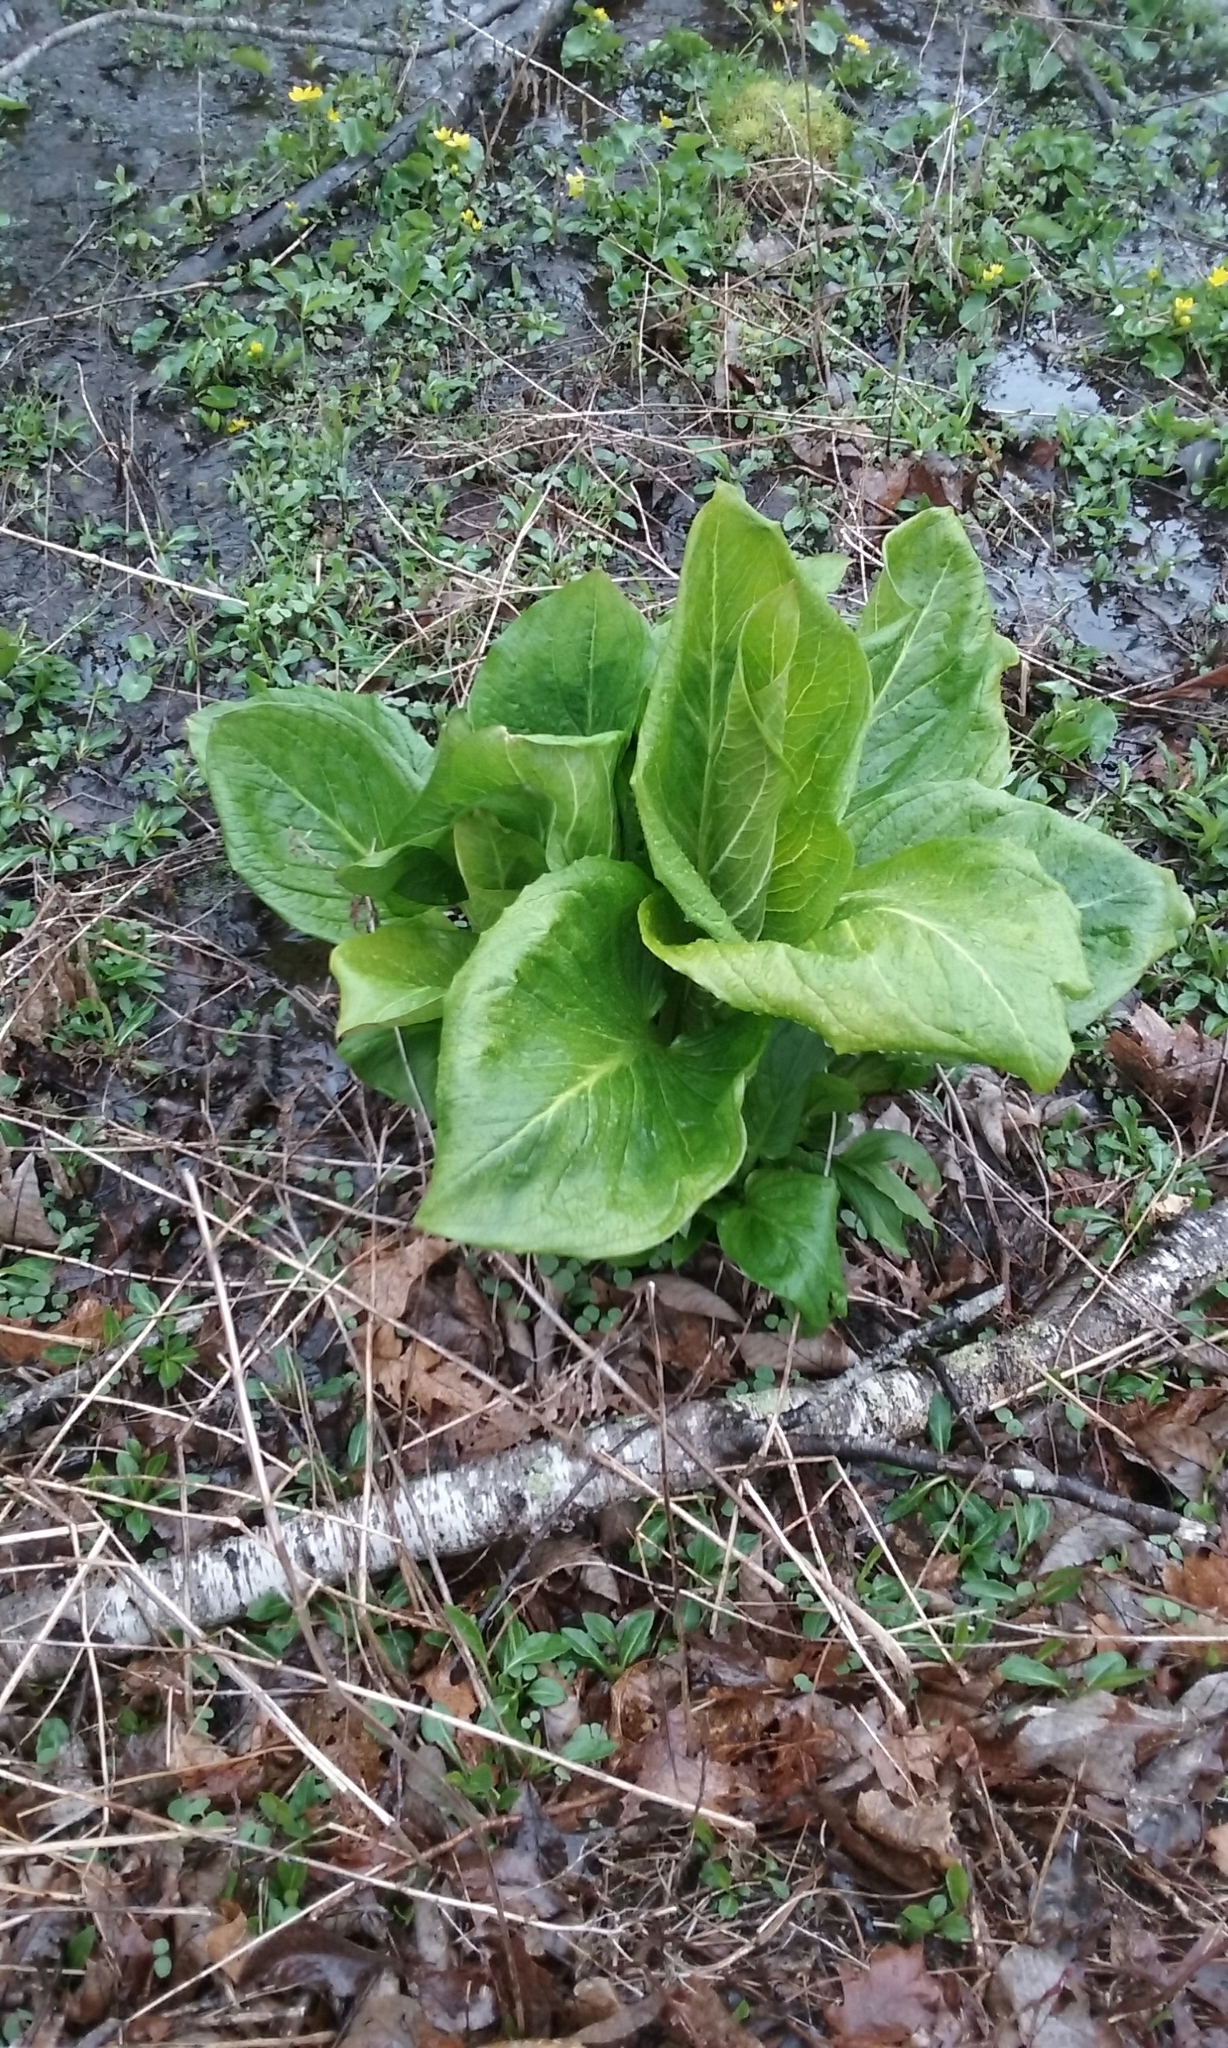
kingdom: Plantae
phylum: Tracheophyta
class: Liliopsida
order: Alismatales
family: Araceae
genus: Symplocarpus
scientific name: Symplocarpus foetidus
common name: Eastern skunk cabbage
